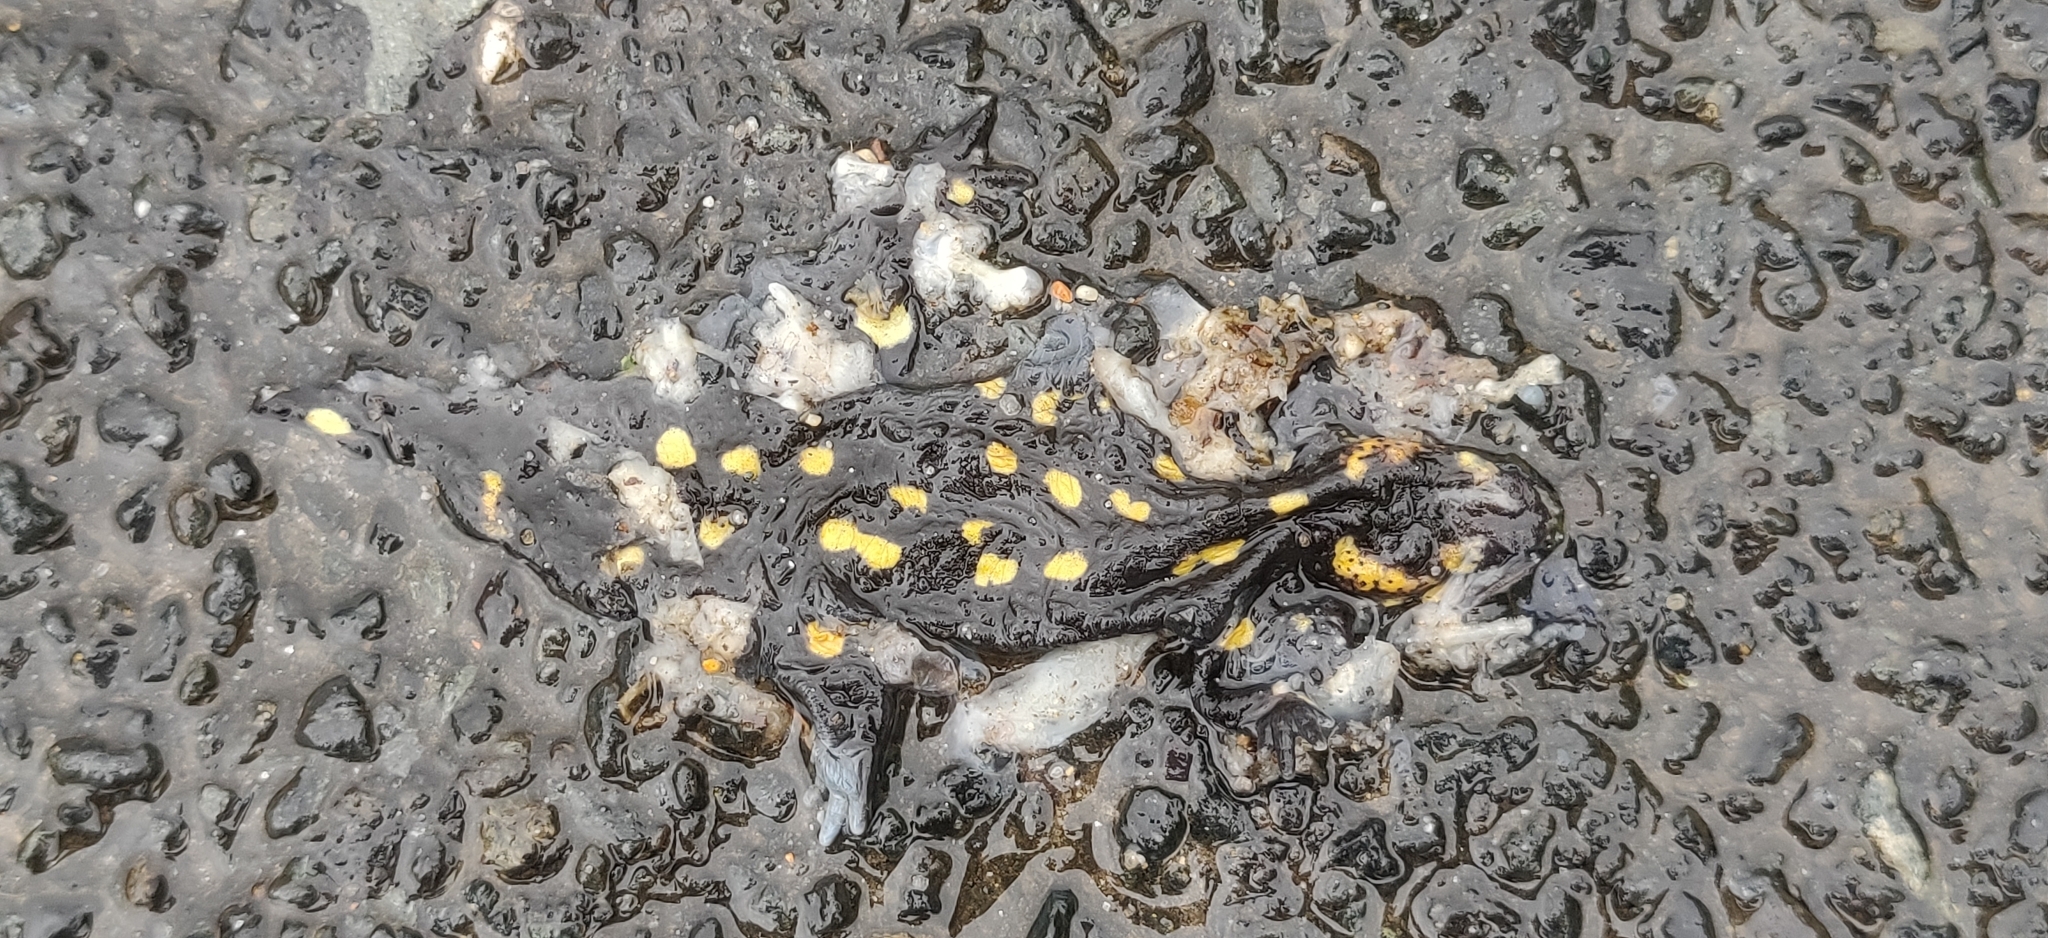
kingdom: Animalia
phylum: Chordata
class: Amphibia
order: Caudata
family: Salamandridae
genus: Salamandra
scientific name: Salamandra salamandra
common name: Fire salamander
